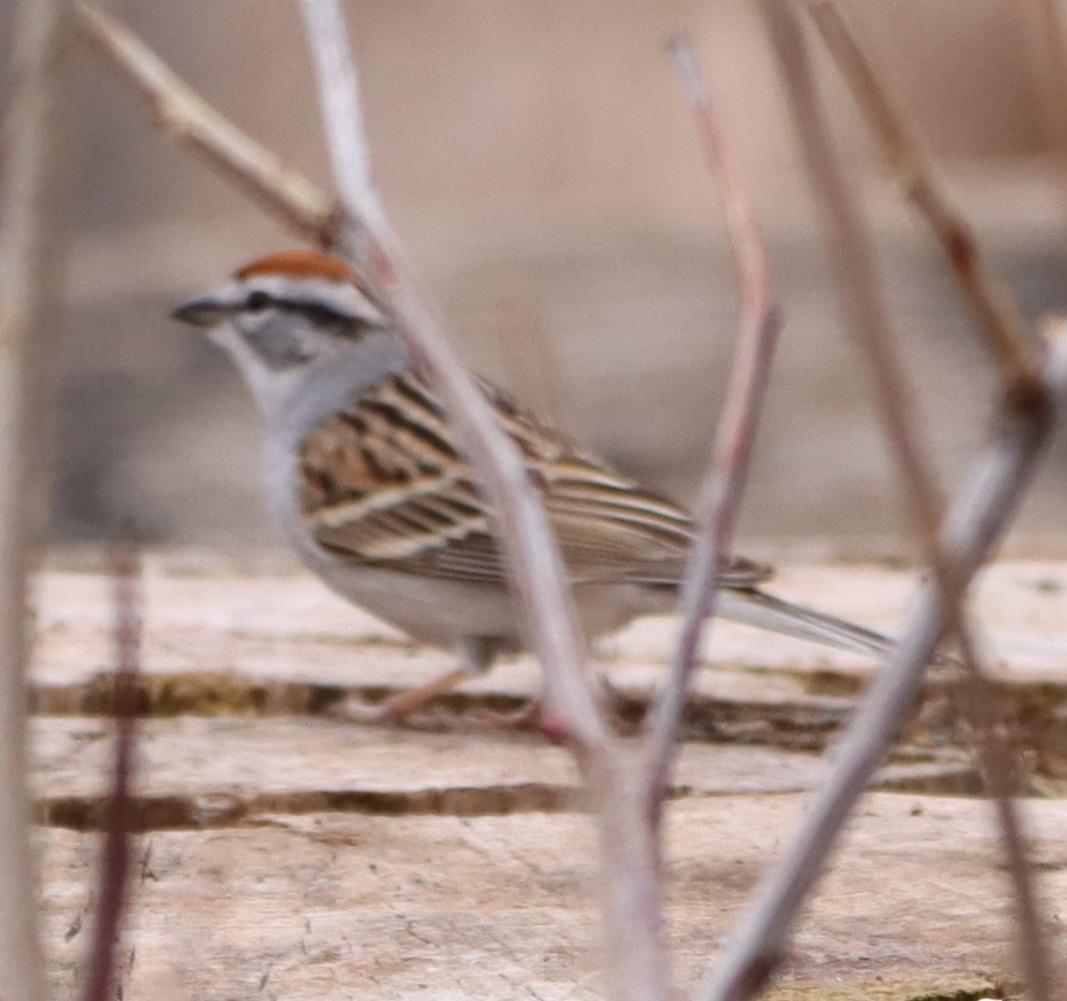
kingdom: Animalia
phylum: Chordata
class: Aves
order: Passeriformes
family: Passerellidae
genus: Spizella
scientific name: Spizella passerina
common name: Chipping sparrow
